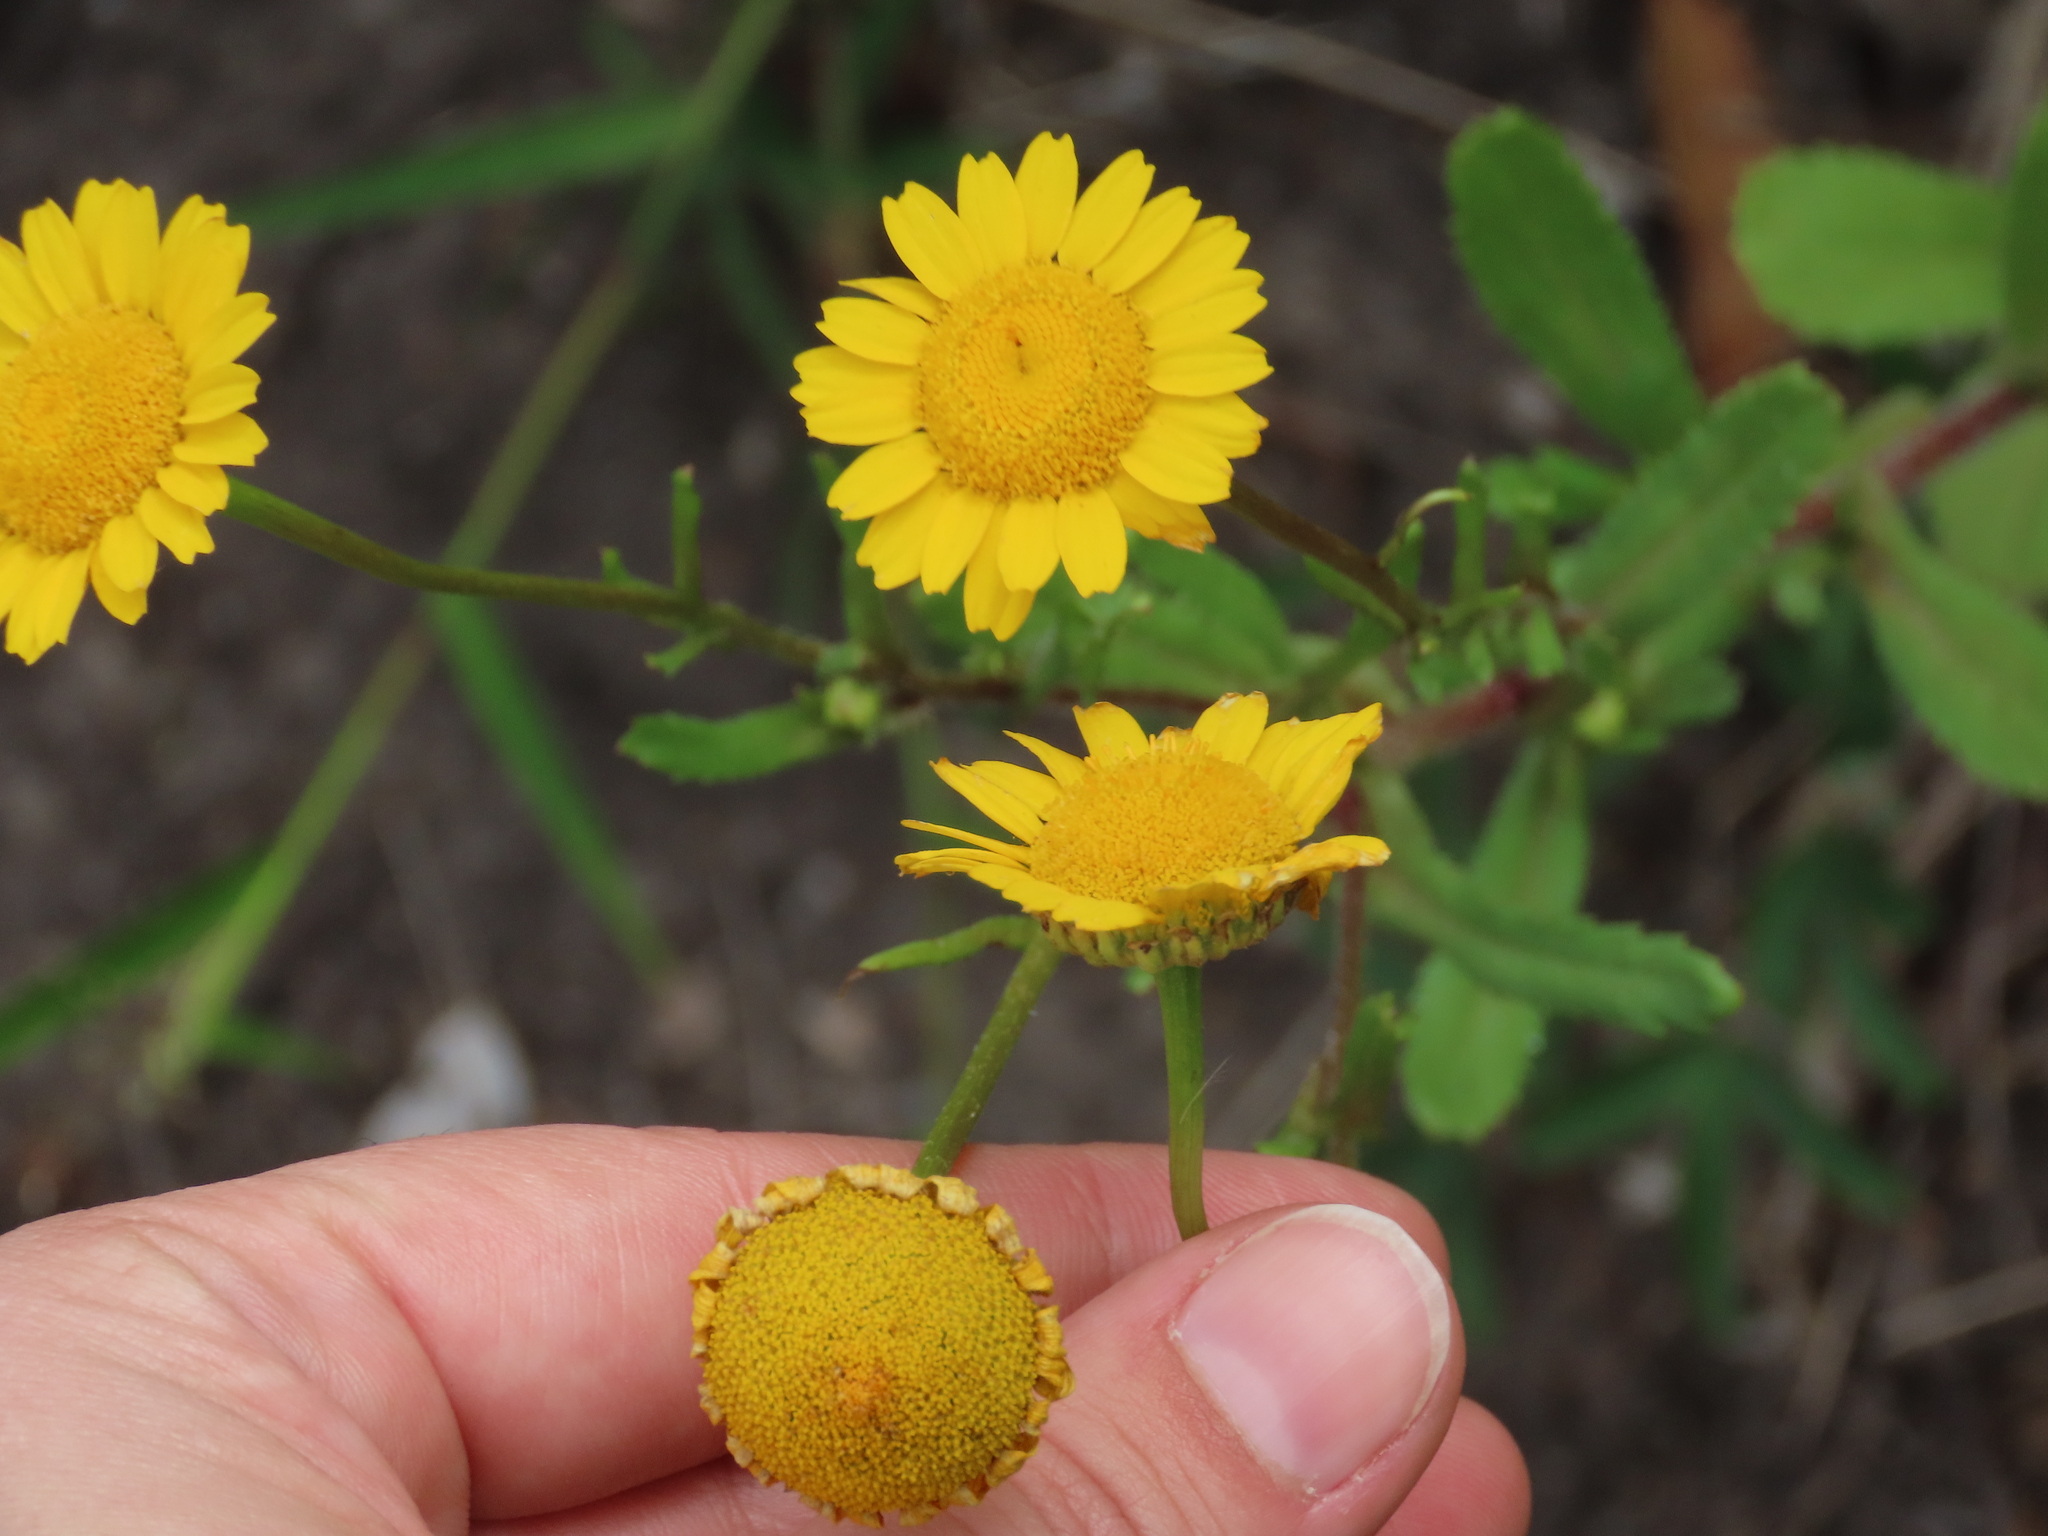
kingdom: Plantae
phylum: Tracheophyta
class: Magnoliopsida
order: Asterales
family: Asteraceae
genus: Coleostephus
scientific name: Coleostephus myconis
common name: Mediterranean marigold
